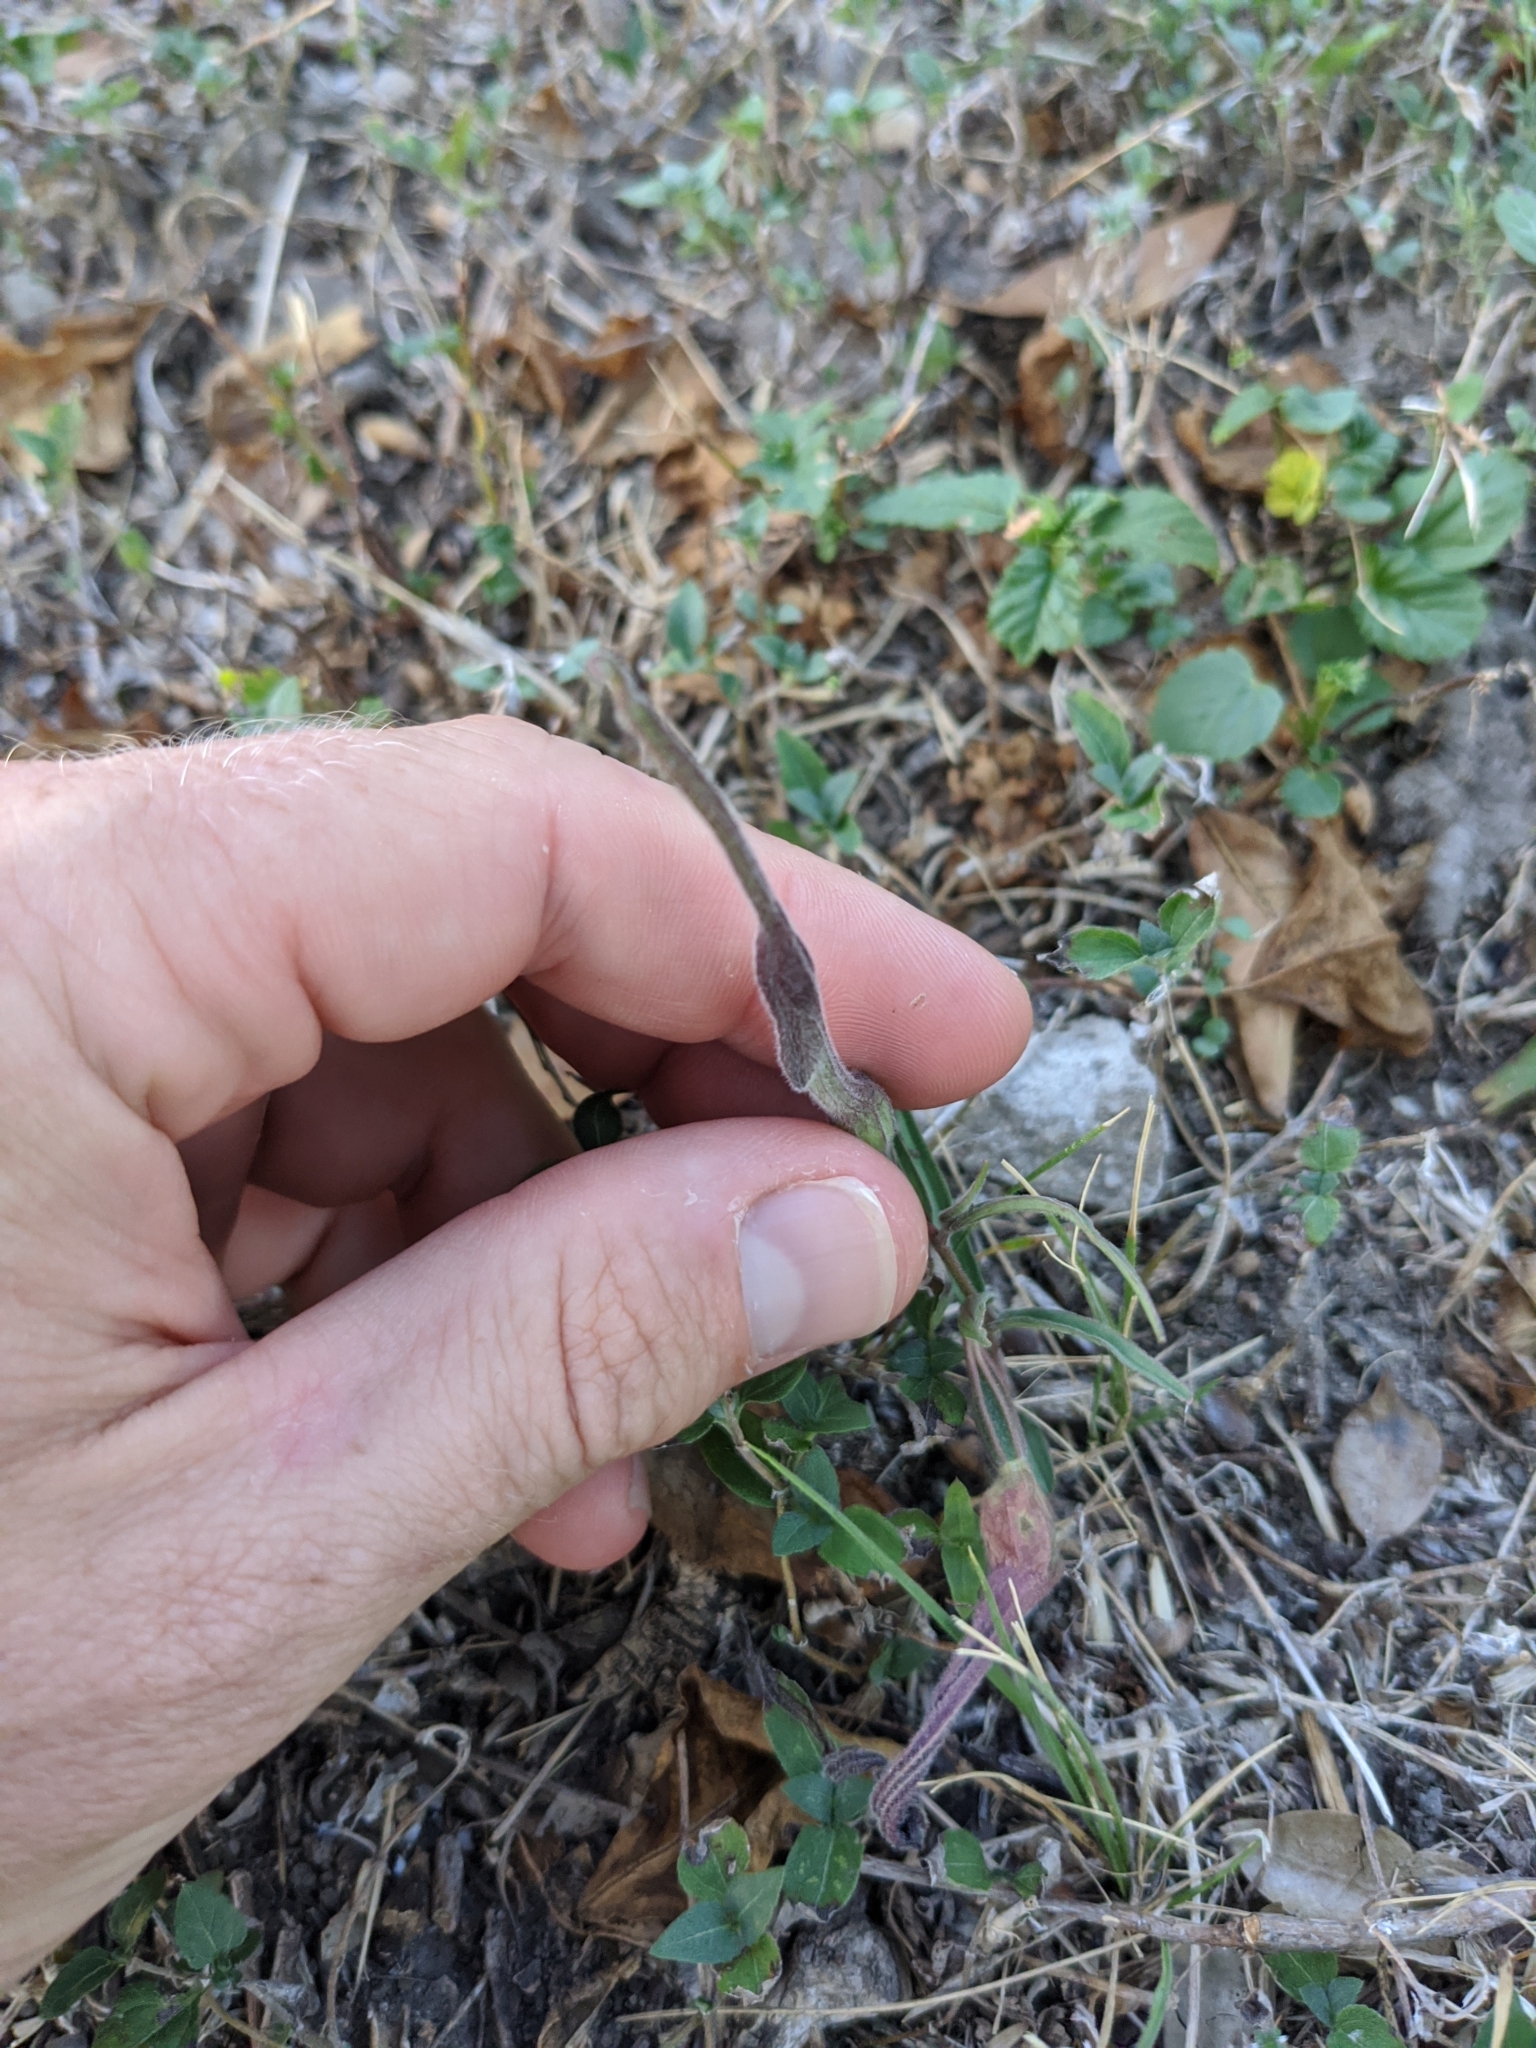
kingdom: Plantae
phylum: Tracheophyta
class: Magnoliopsida
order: Piperales
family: Aristolochiaceae
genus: Aristolochia
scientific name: Aristolochia erecta
